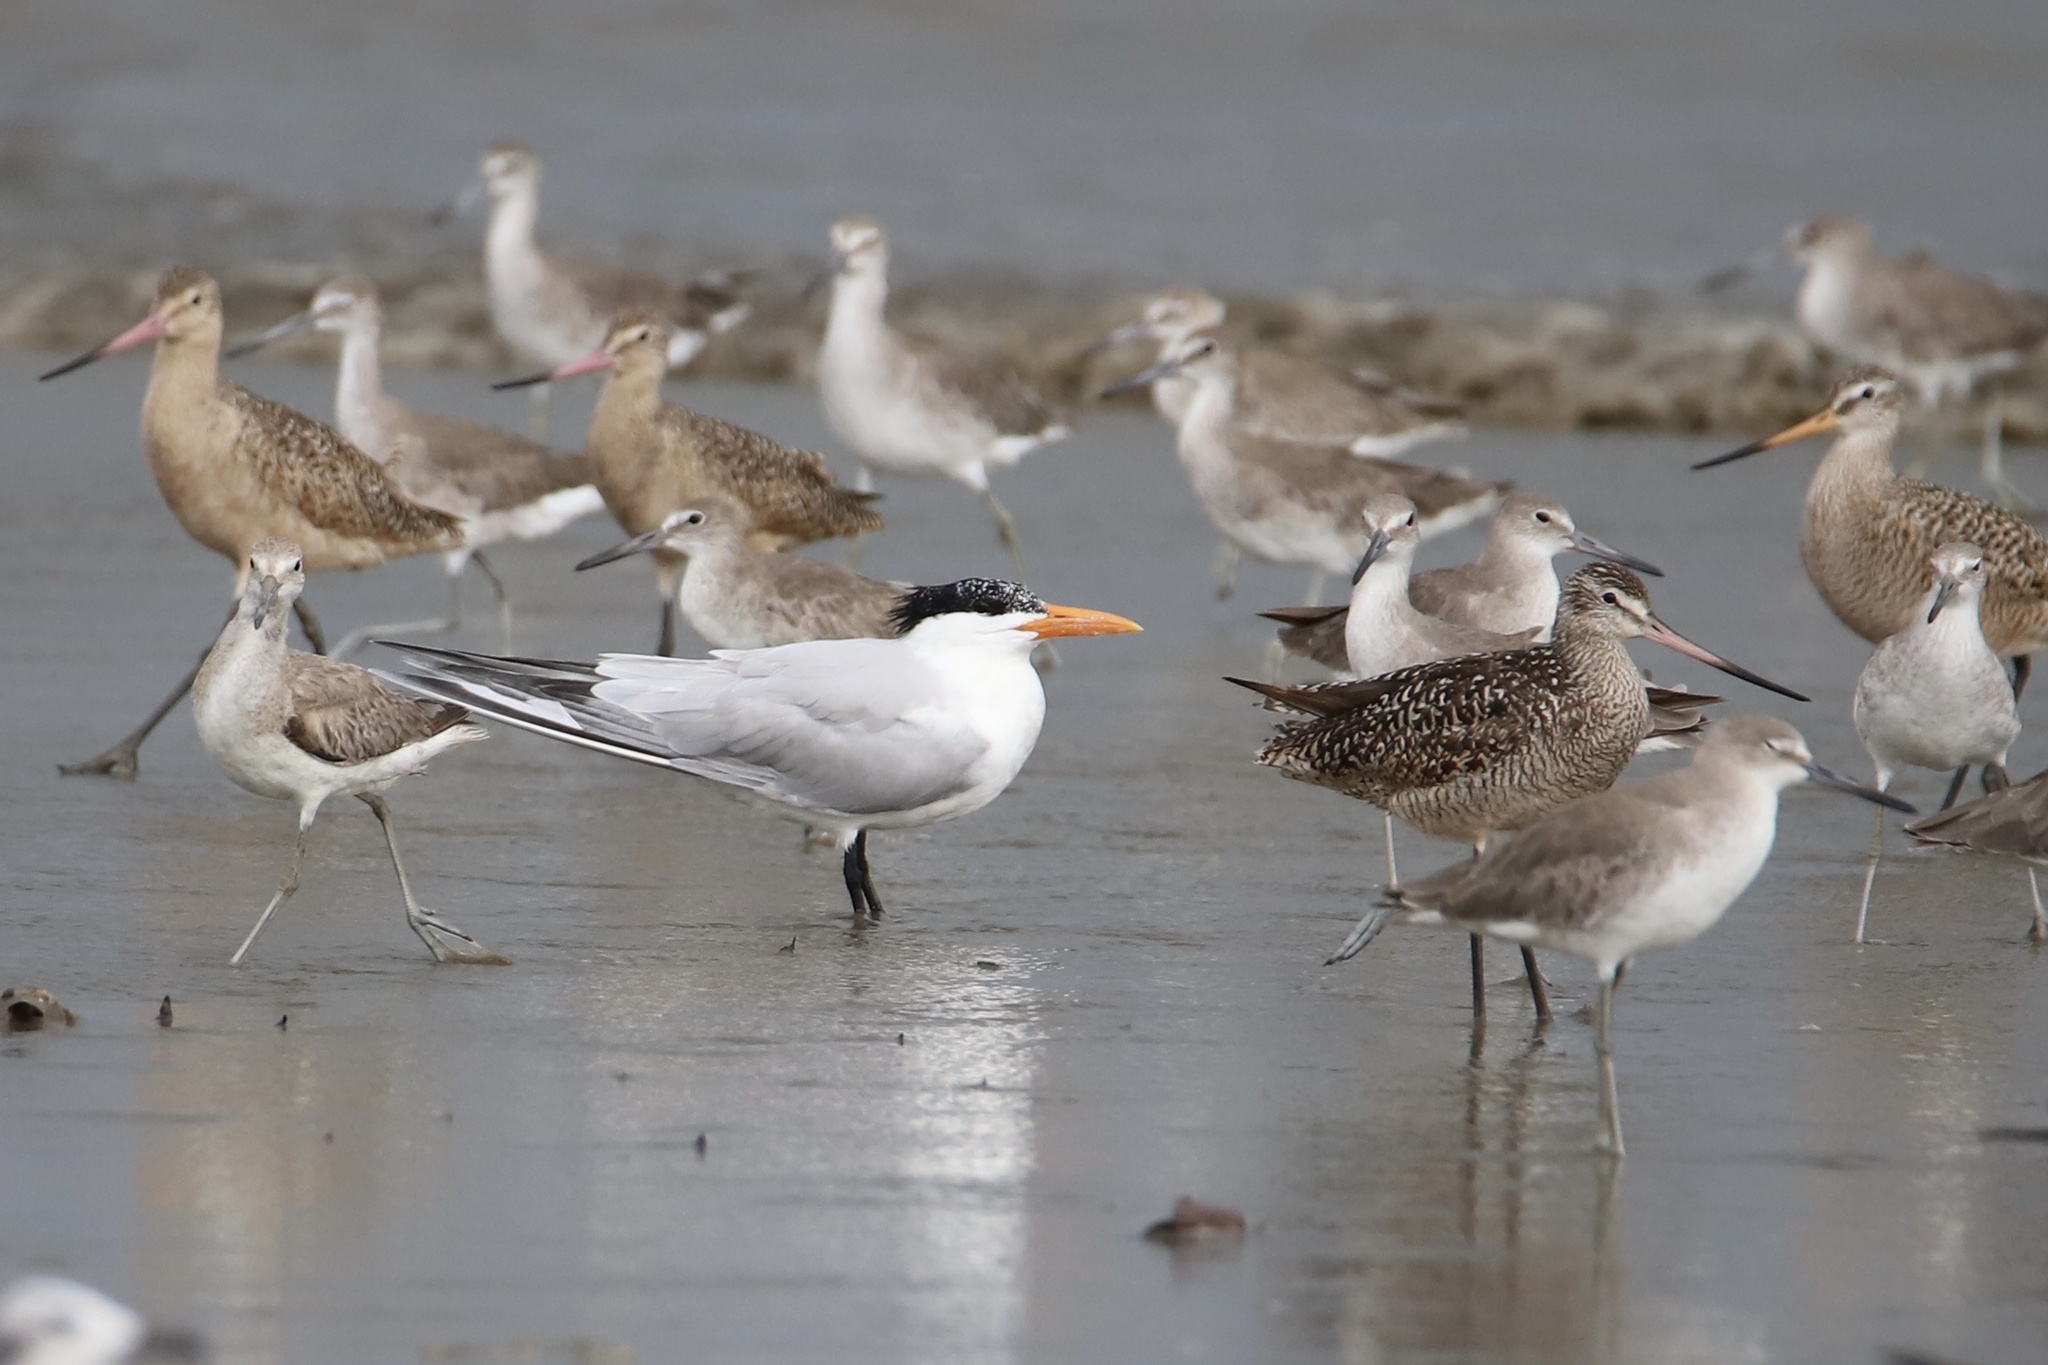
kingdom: Animalia
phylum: Chordata
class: Aves
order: Charadriiformes
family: Laridae
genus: Thalasseus
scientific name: Thalasseus maximus
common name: Royal tern
